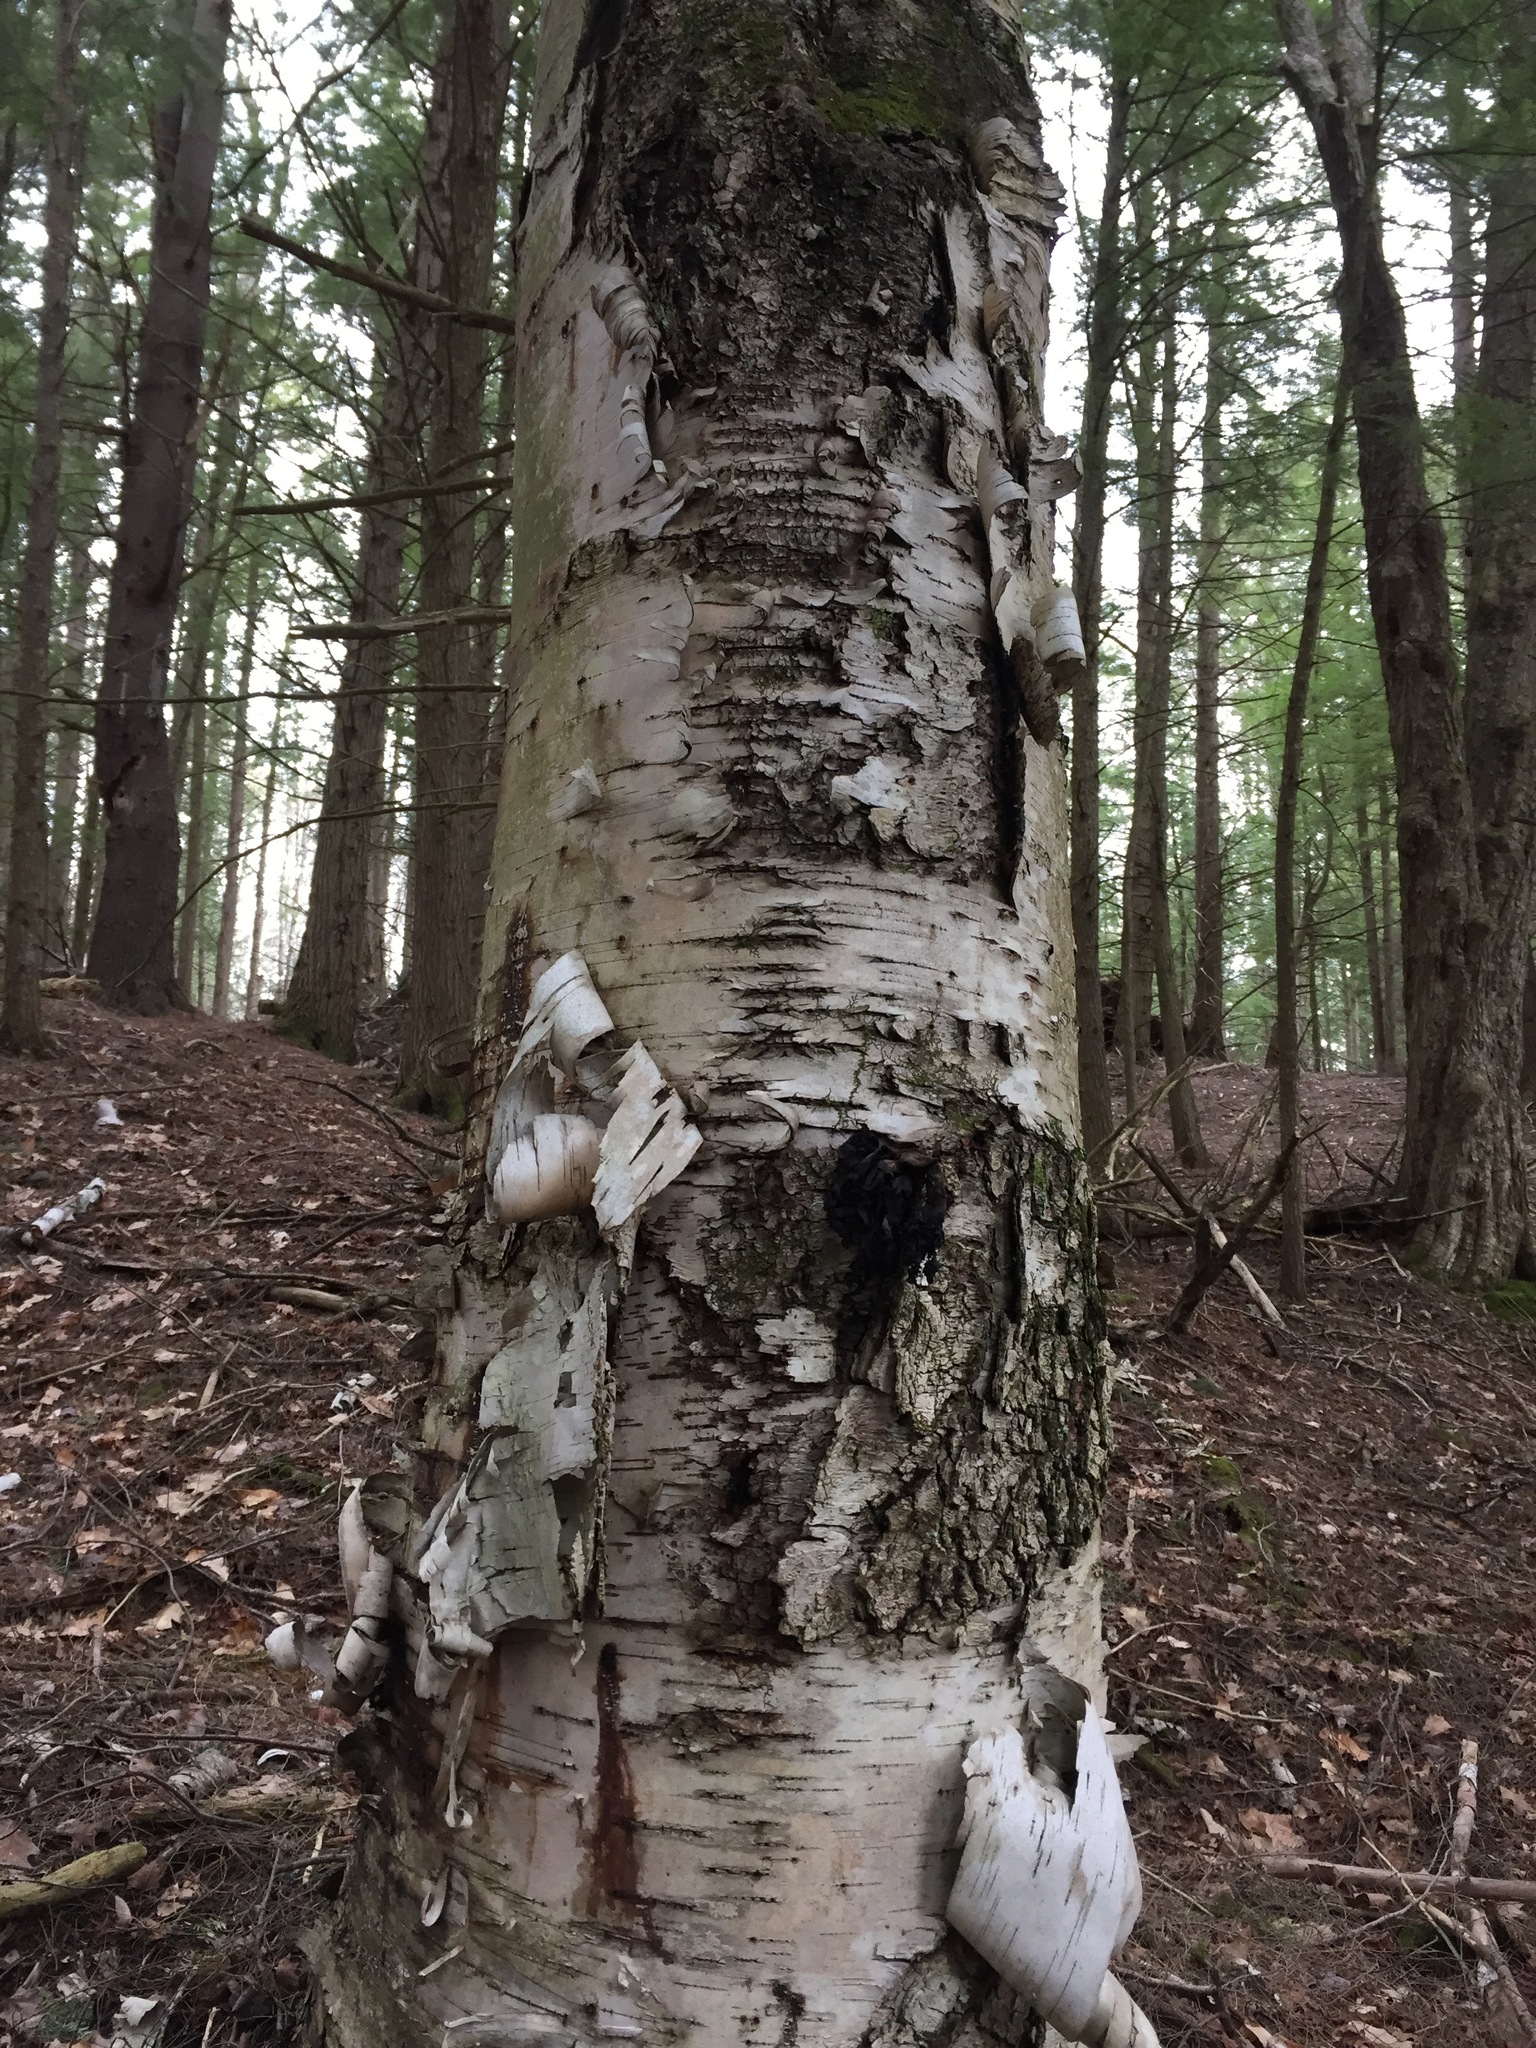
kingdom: Plantae
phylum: Tracheophyta
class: Magnoliopsida
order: Fagales
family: Betulaceae
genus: Betula
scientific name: Betula papyrifera
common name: Paper birch
